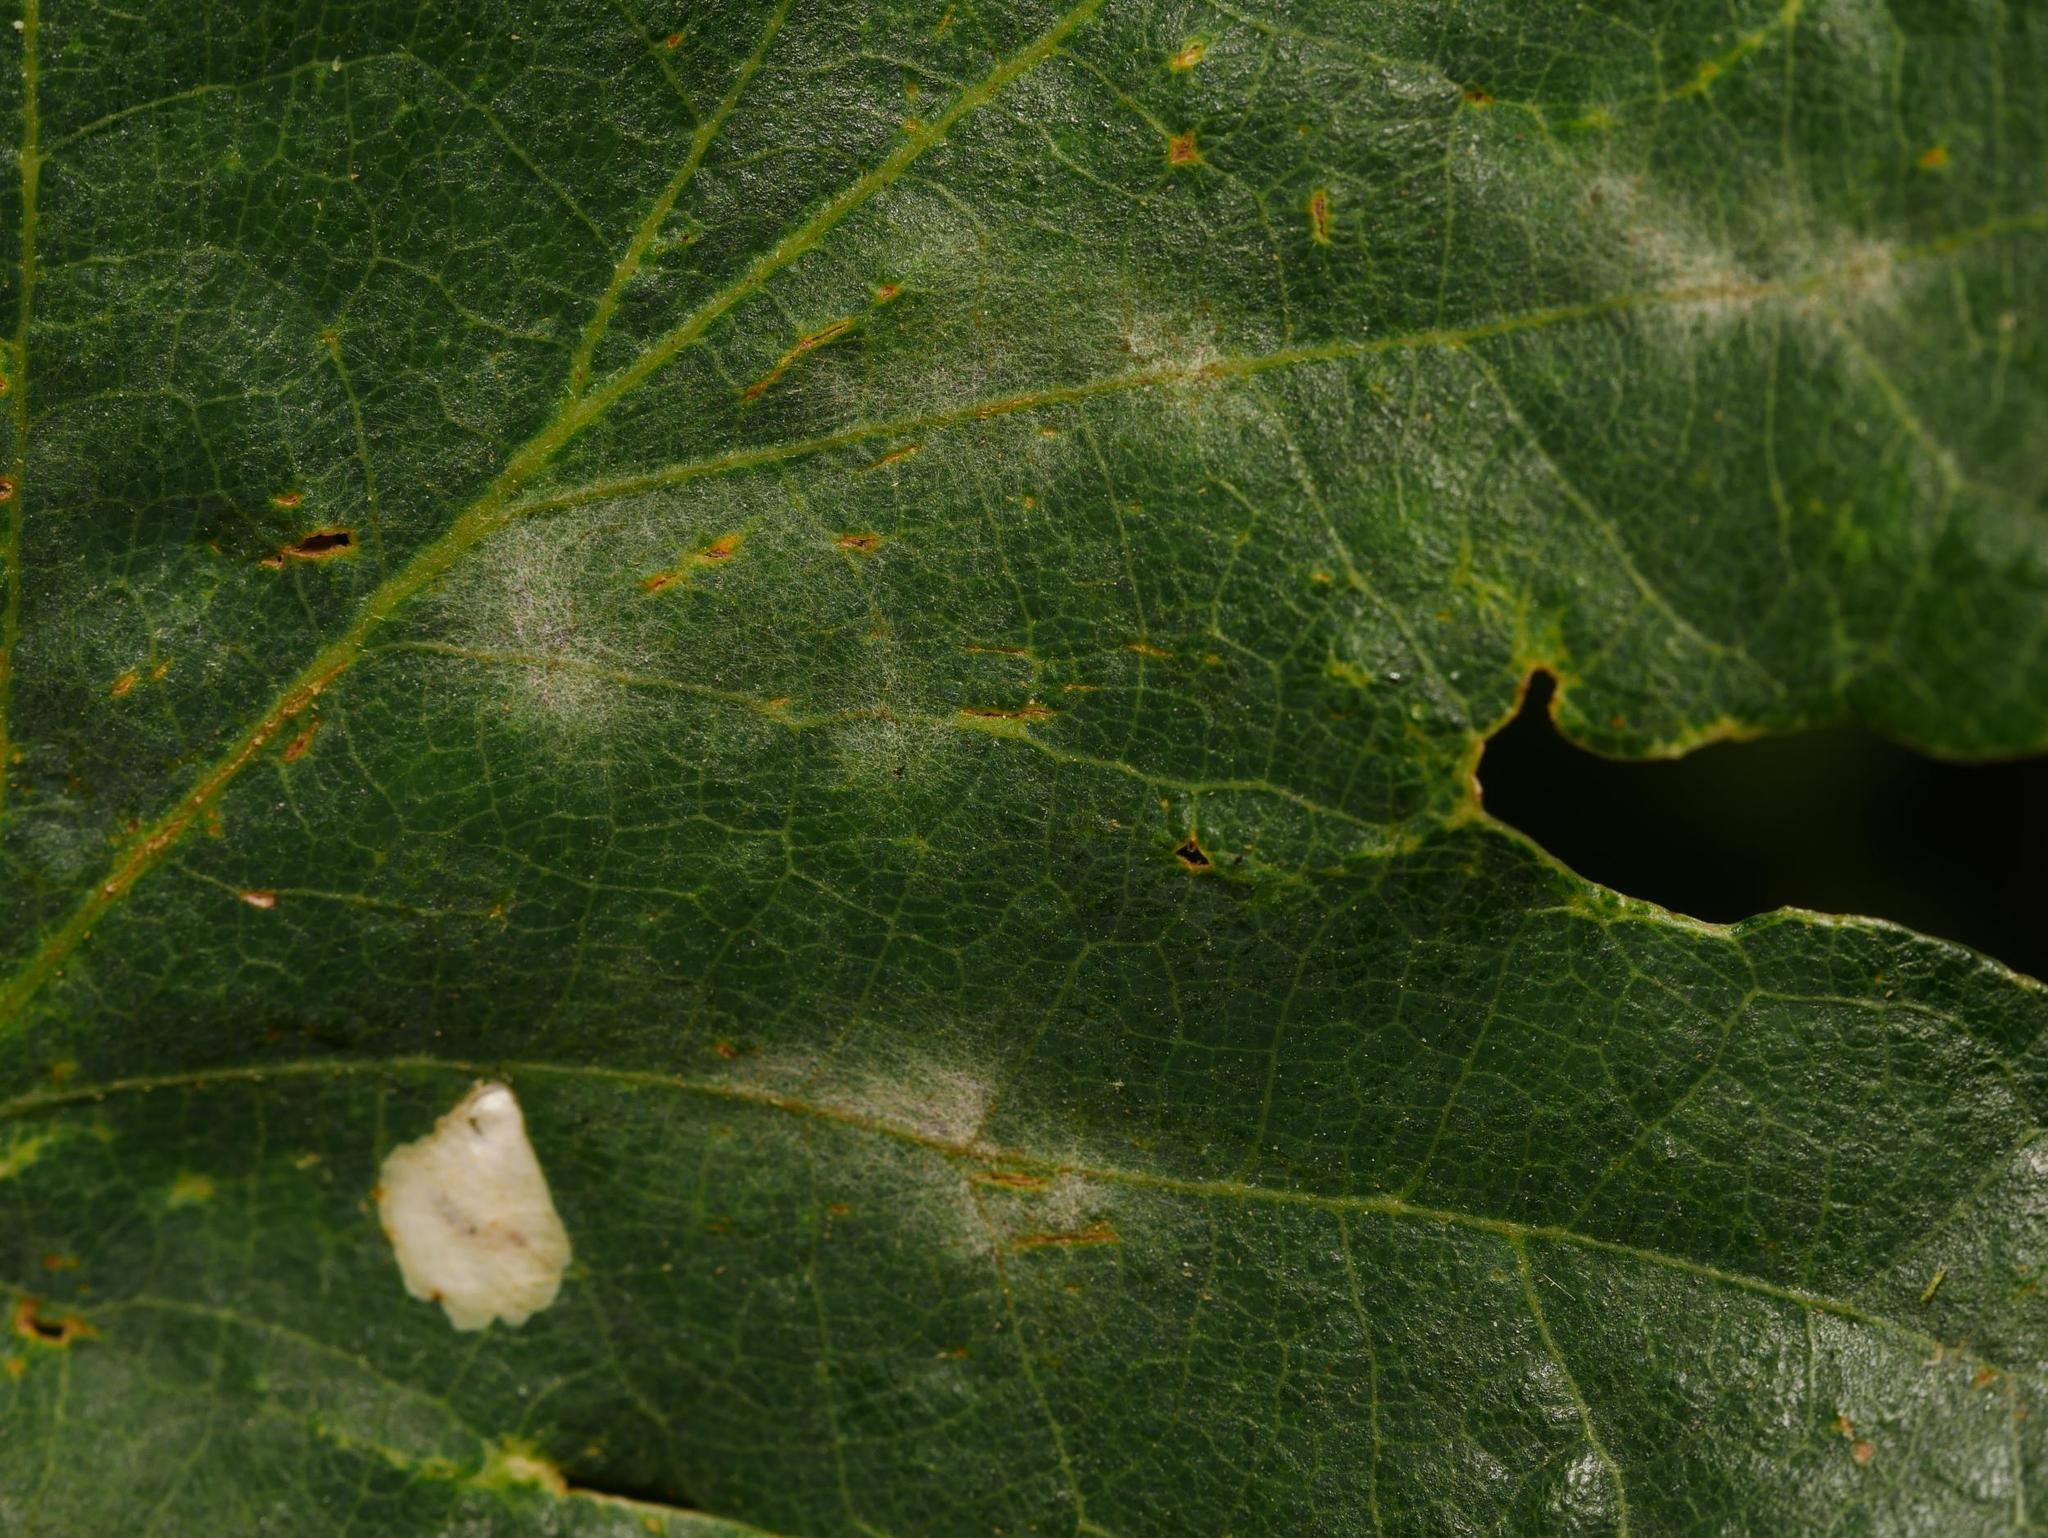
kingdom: Fungi
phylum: Ascomycota
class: Leotiomycetes
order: Helotiales
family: Erysiphaceae
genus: Erysiphe
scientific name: Erysiphe
